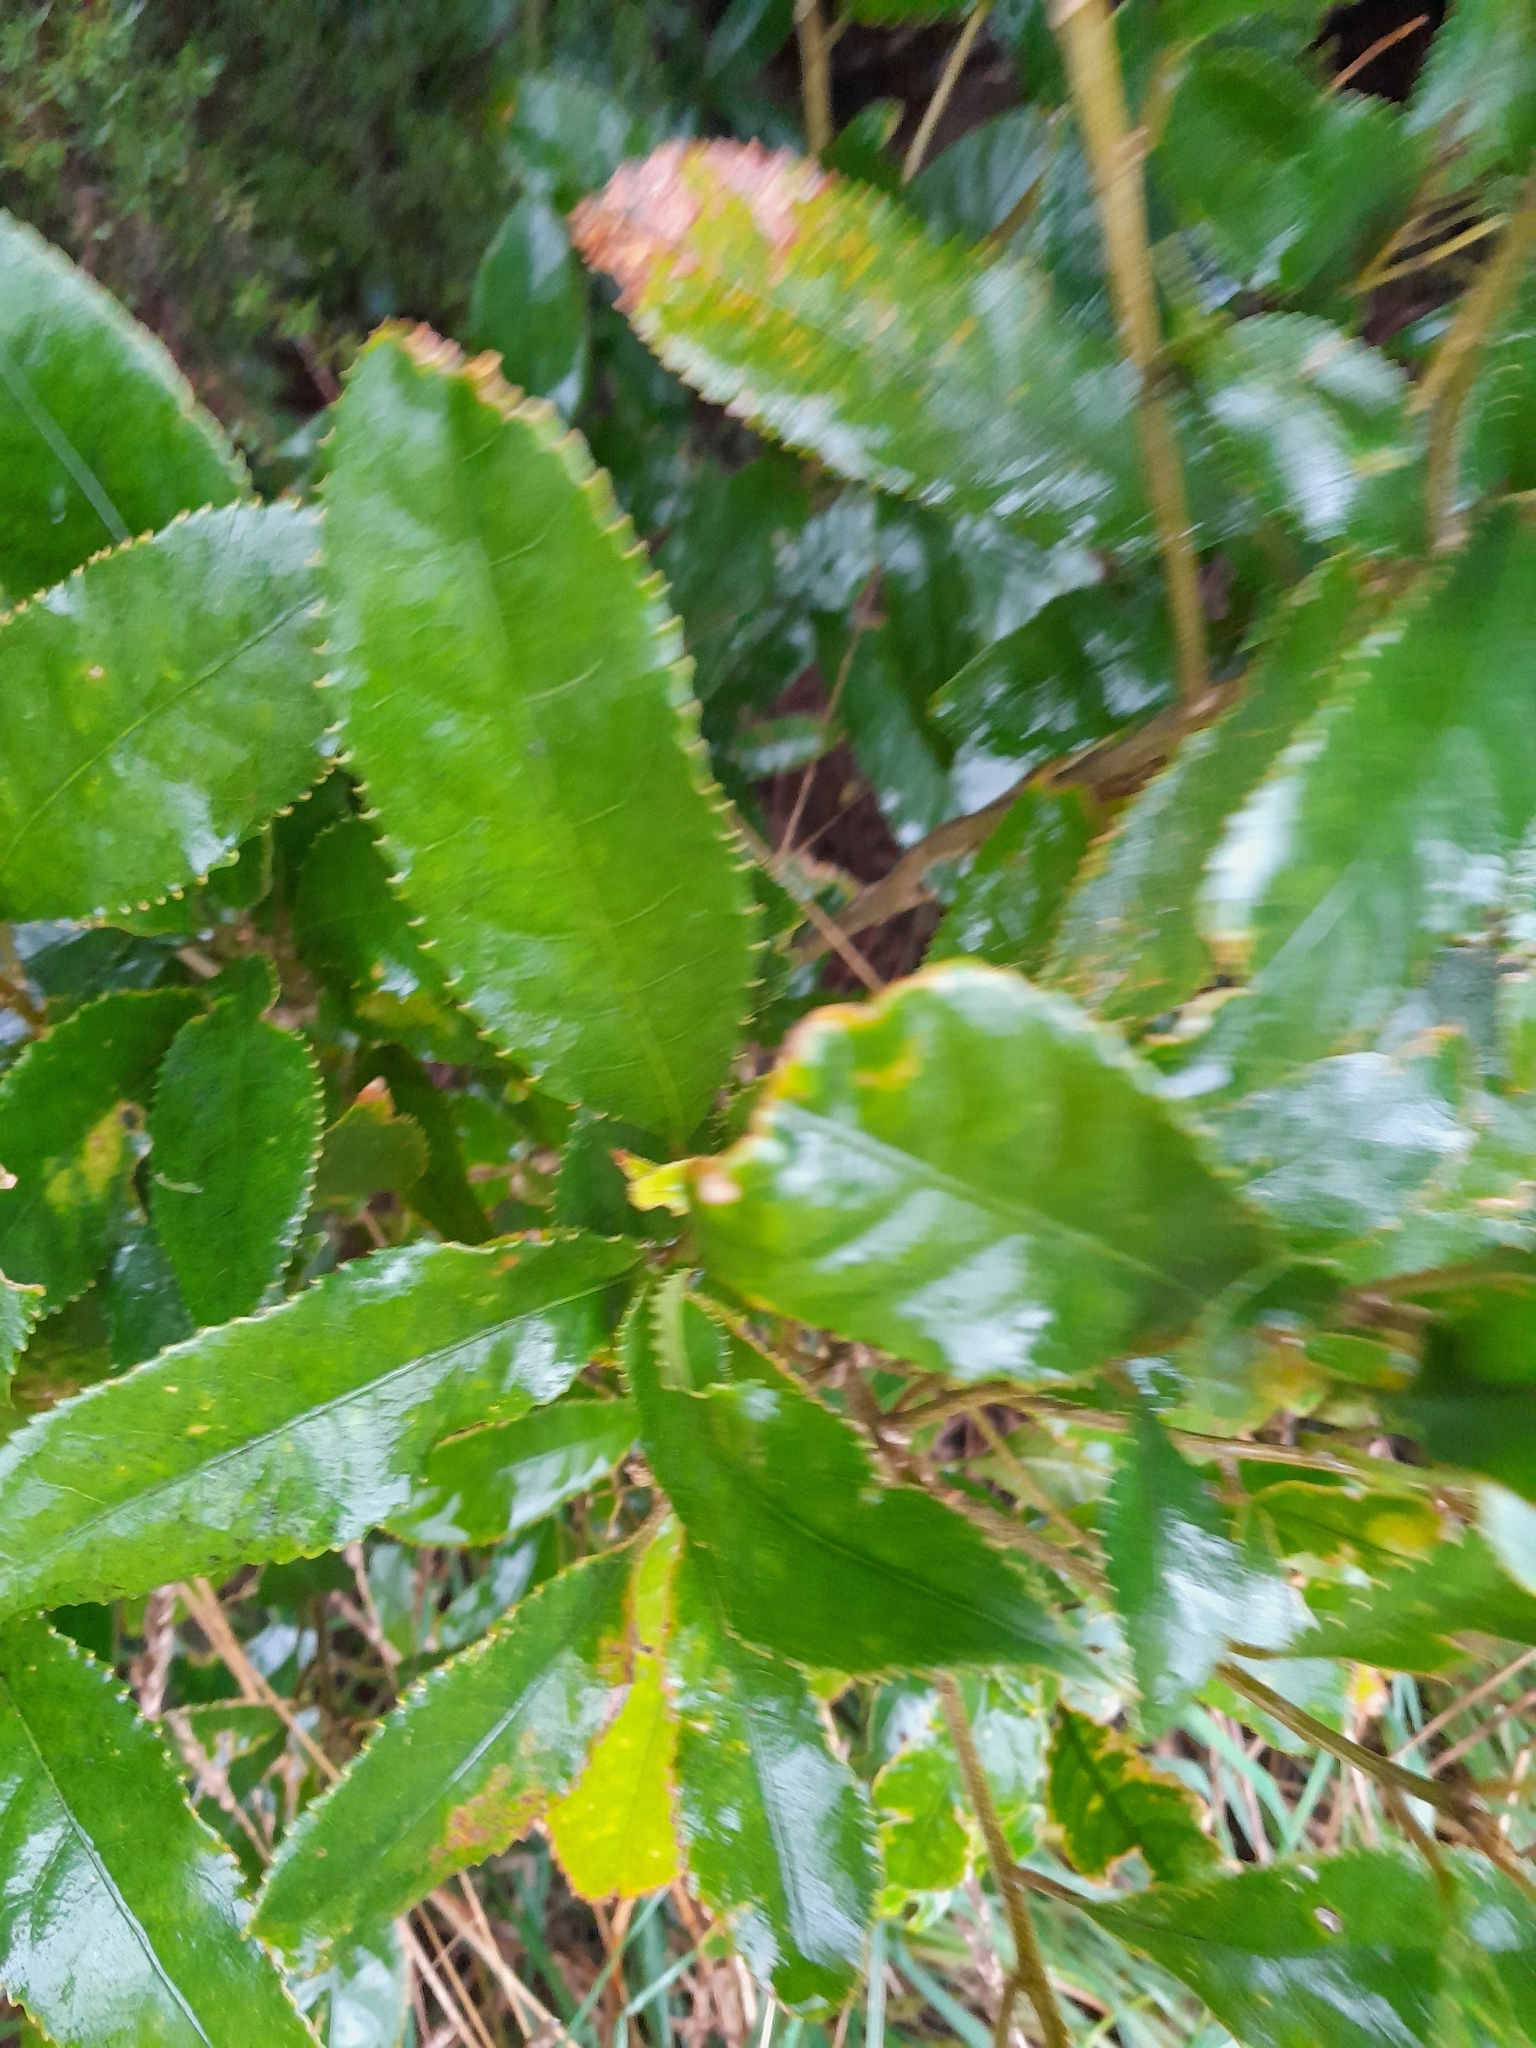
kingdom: Plantae
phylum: Tracheophyta
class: Magnoliopsida
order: Malpighiales
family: Violaceae
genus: Melicytus
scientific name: Melicytus ramiflorus
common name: Mahoe
